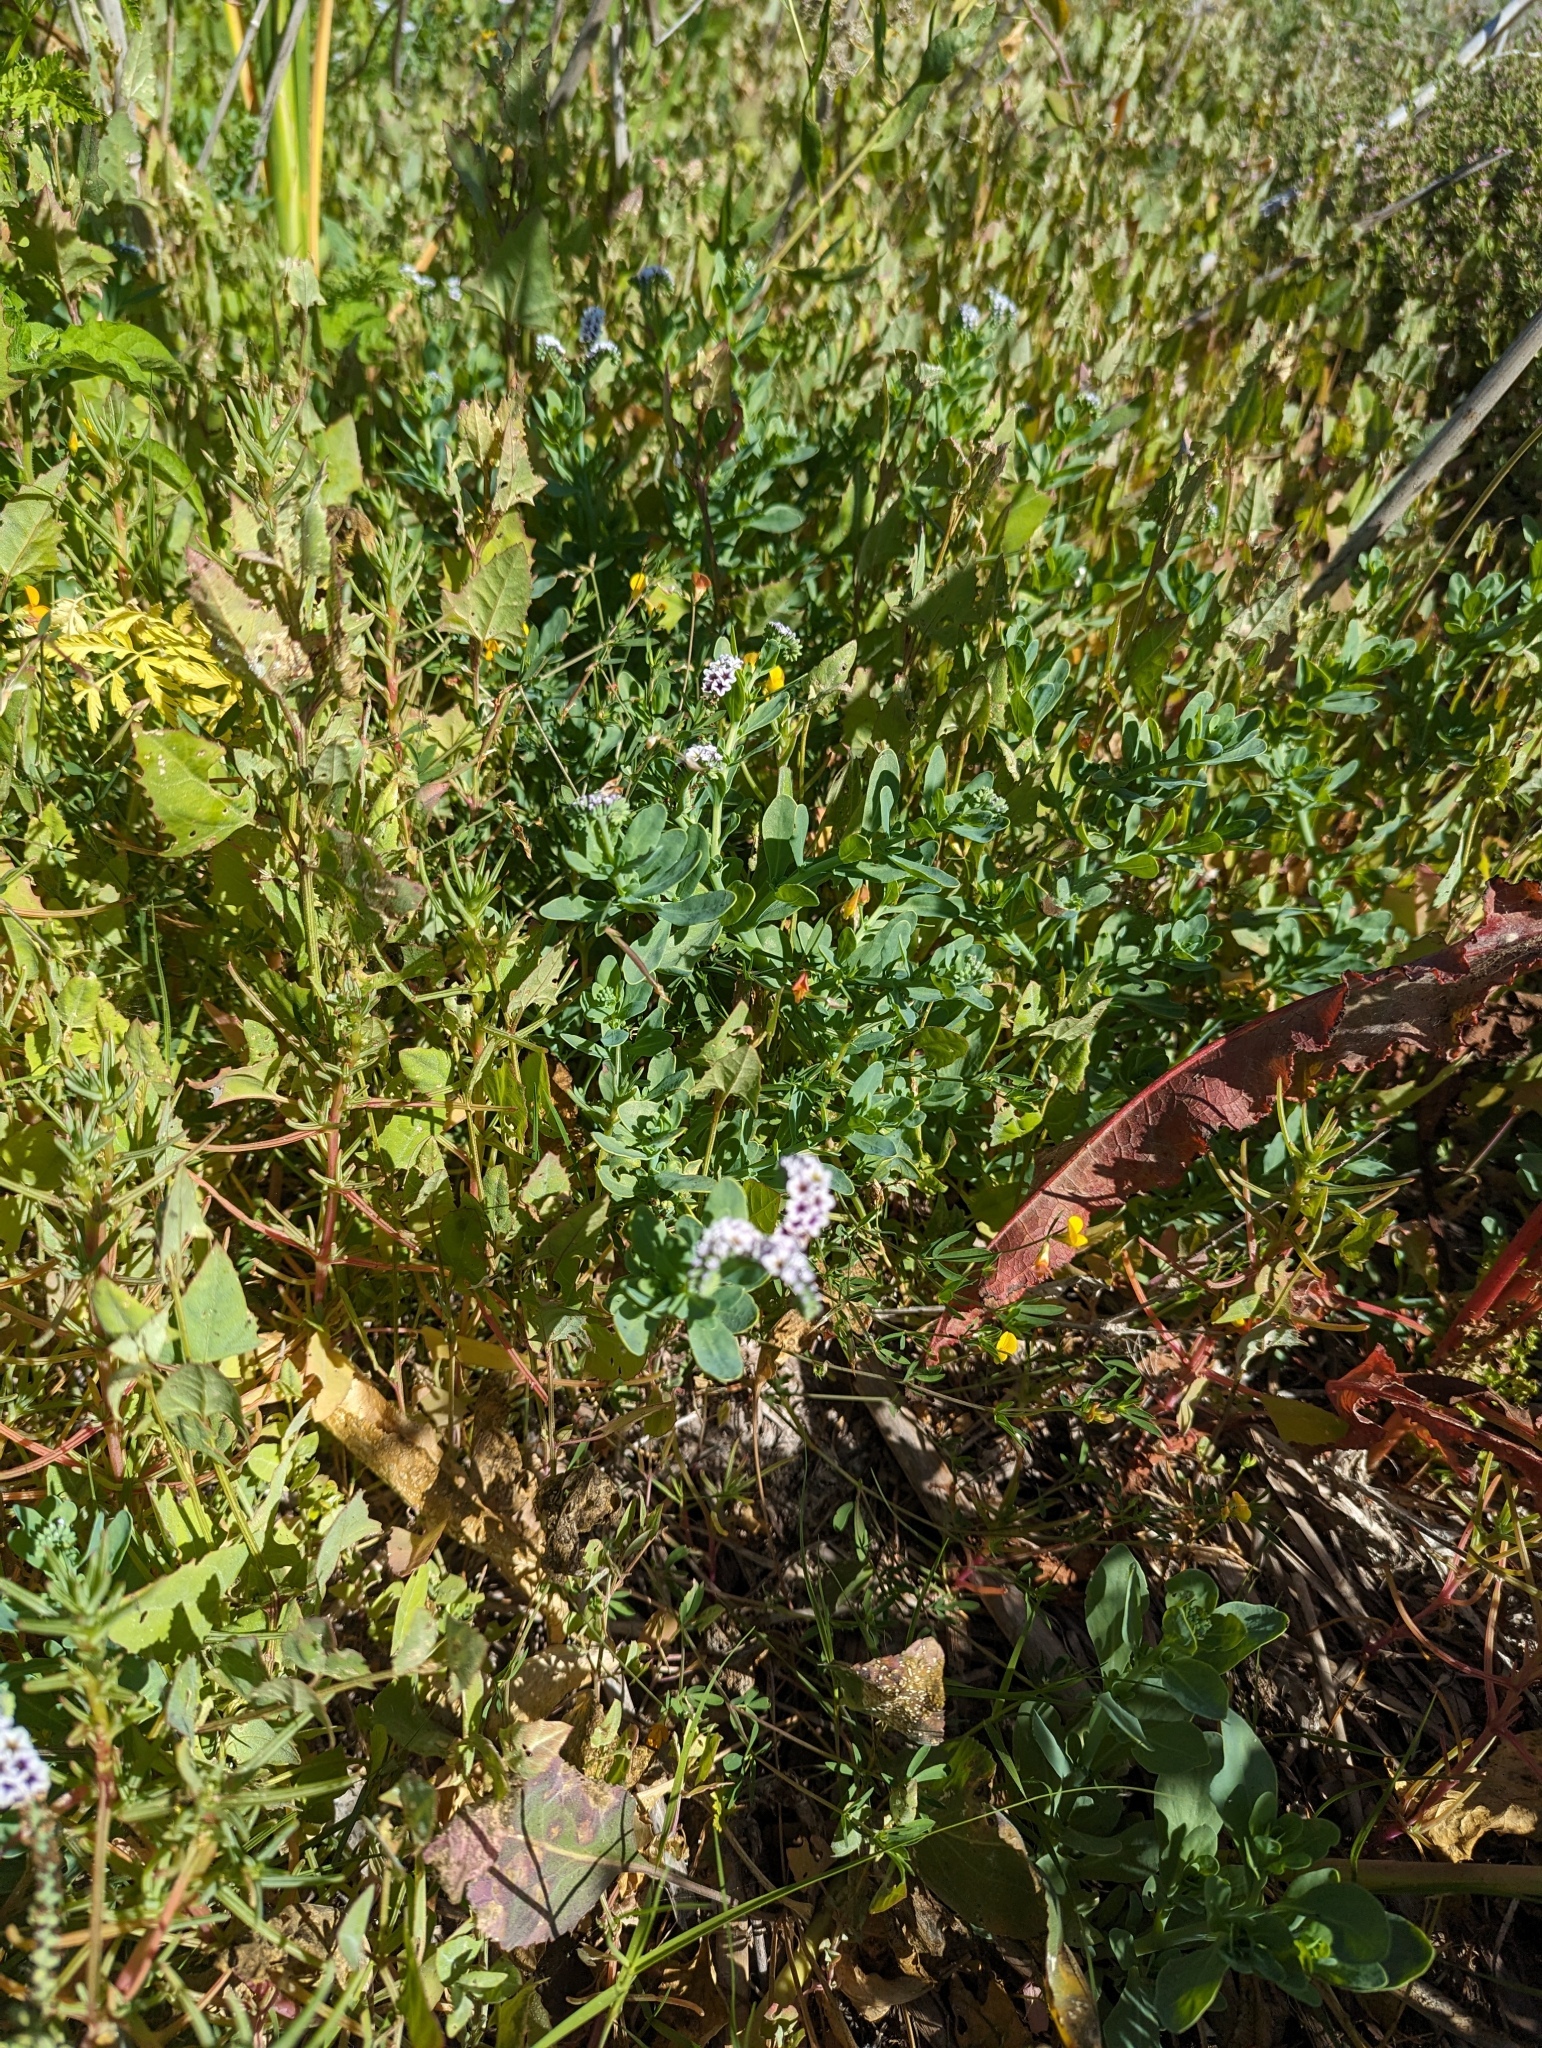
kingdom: Plantae
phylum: Tracheophyta
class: Magnoliopsida
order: Boraginales
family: Heliotropiaceae
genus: Heliotropium
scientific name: Heliotropium curassavicum
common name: Seaside heliotrope
